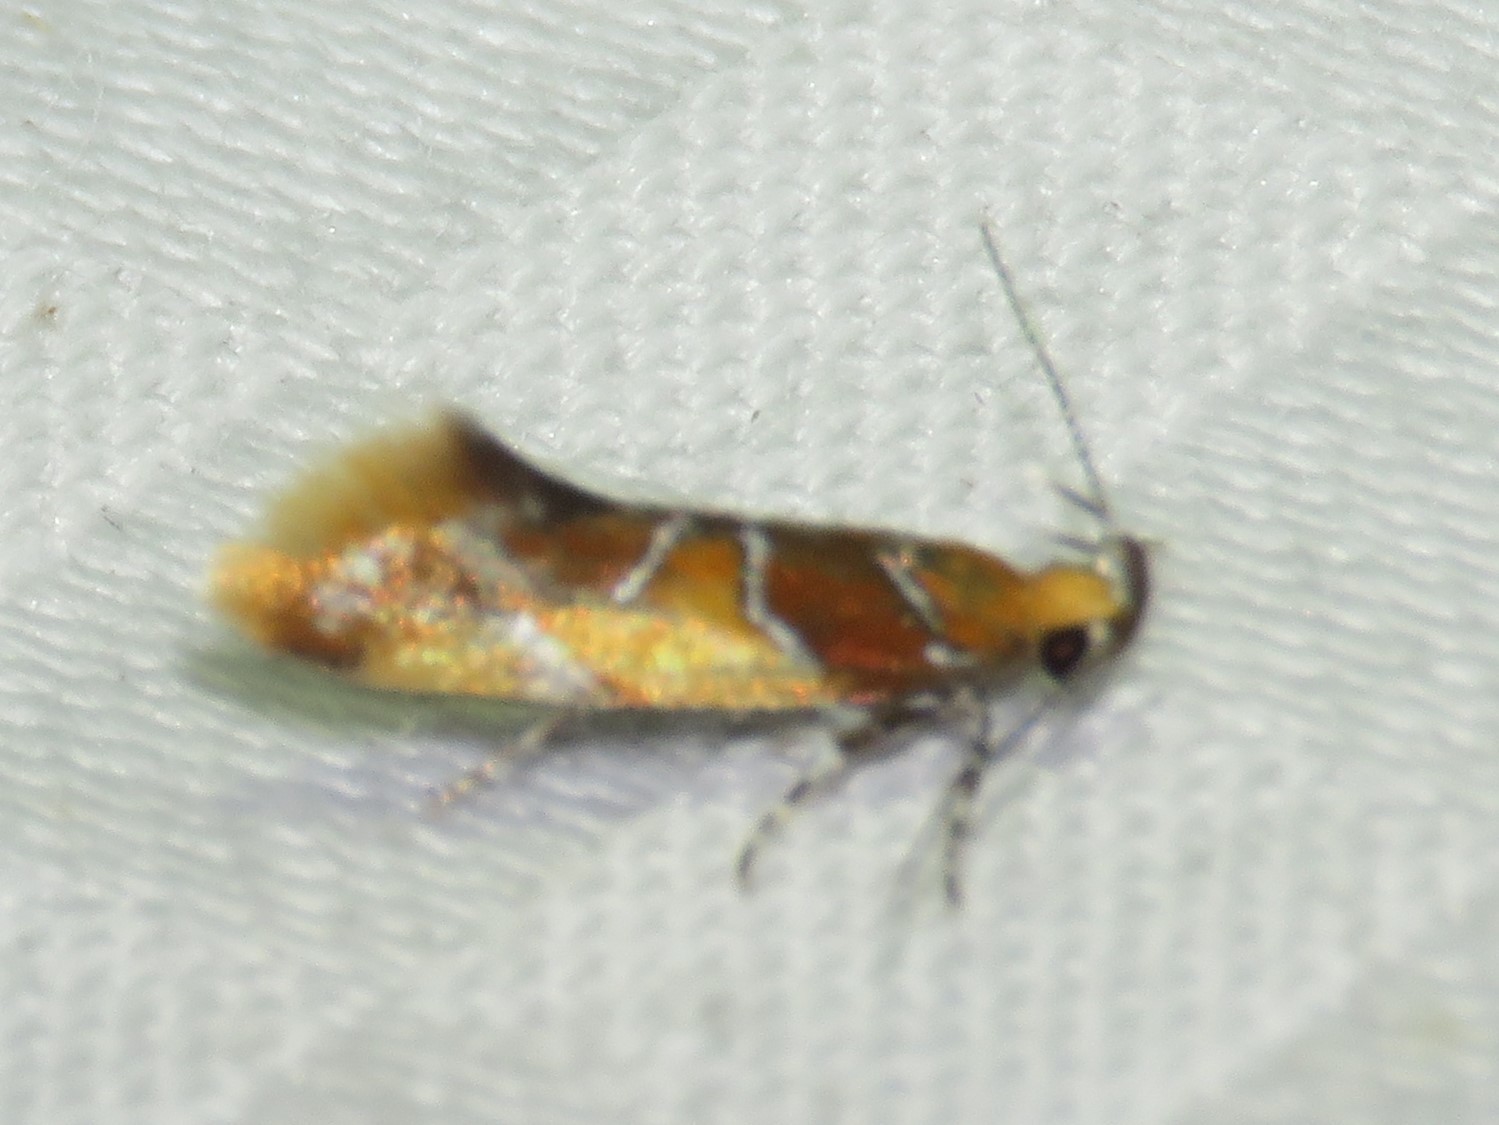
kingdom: Animalia
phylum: Arthropoda
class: Insecta
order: Lepidoptera
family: Oecophoridae
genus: Callima
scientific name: Callima argenticinctella
